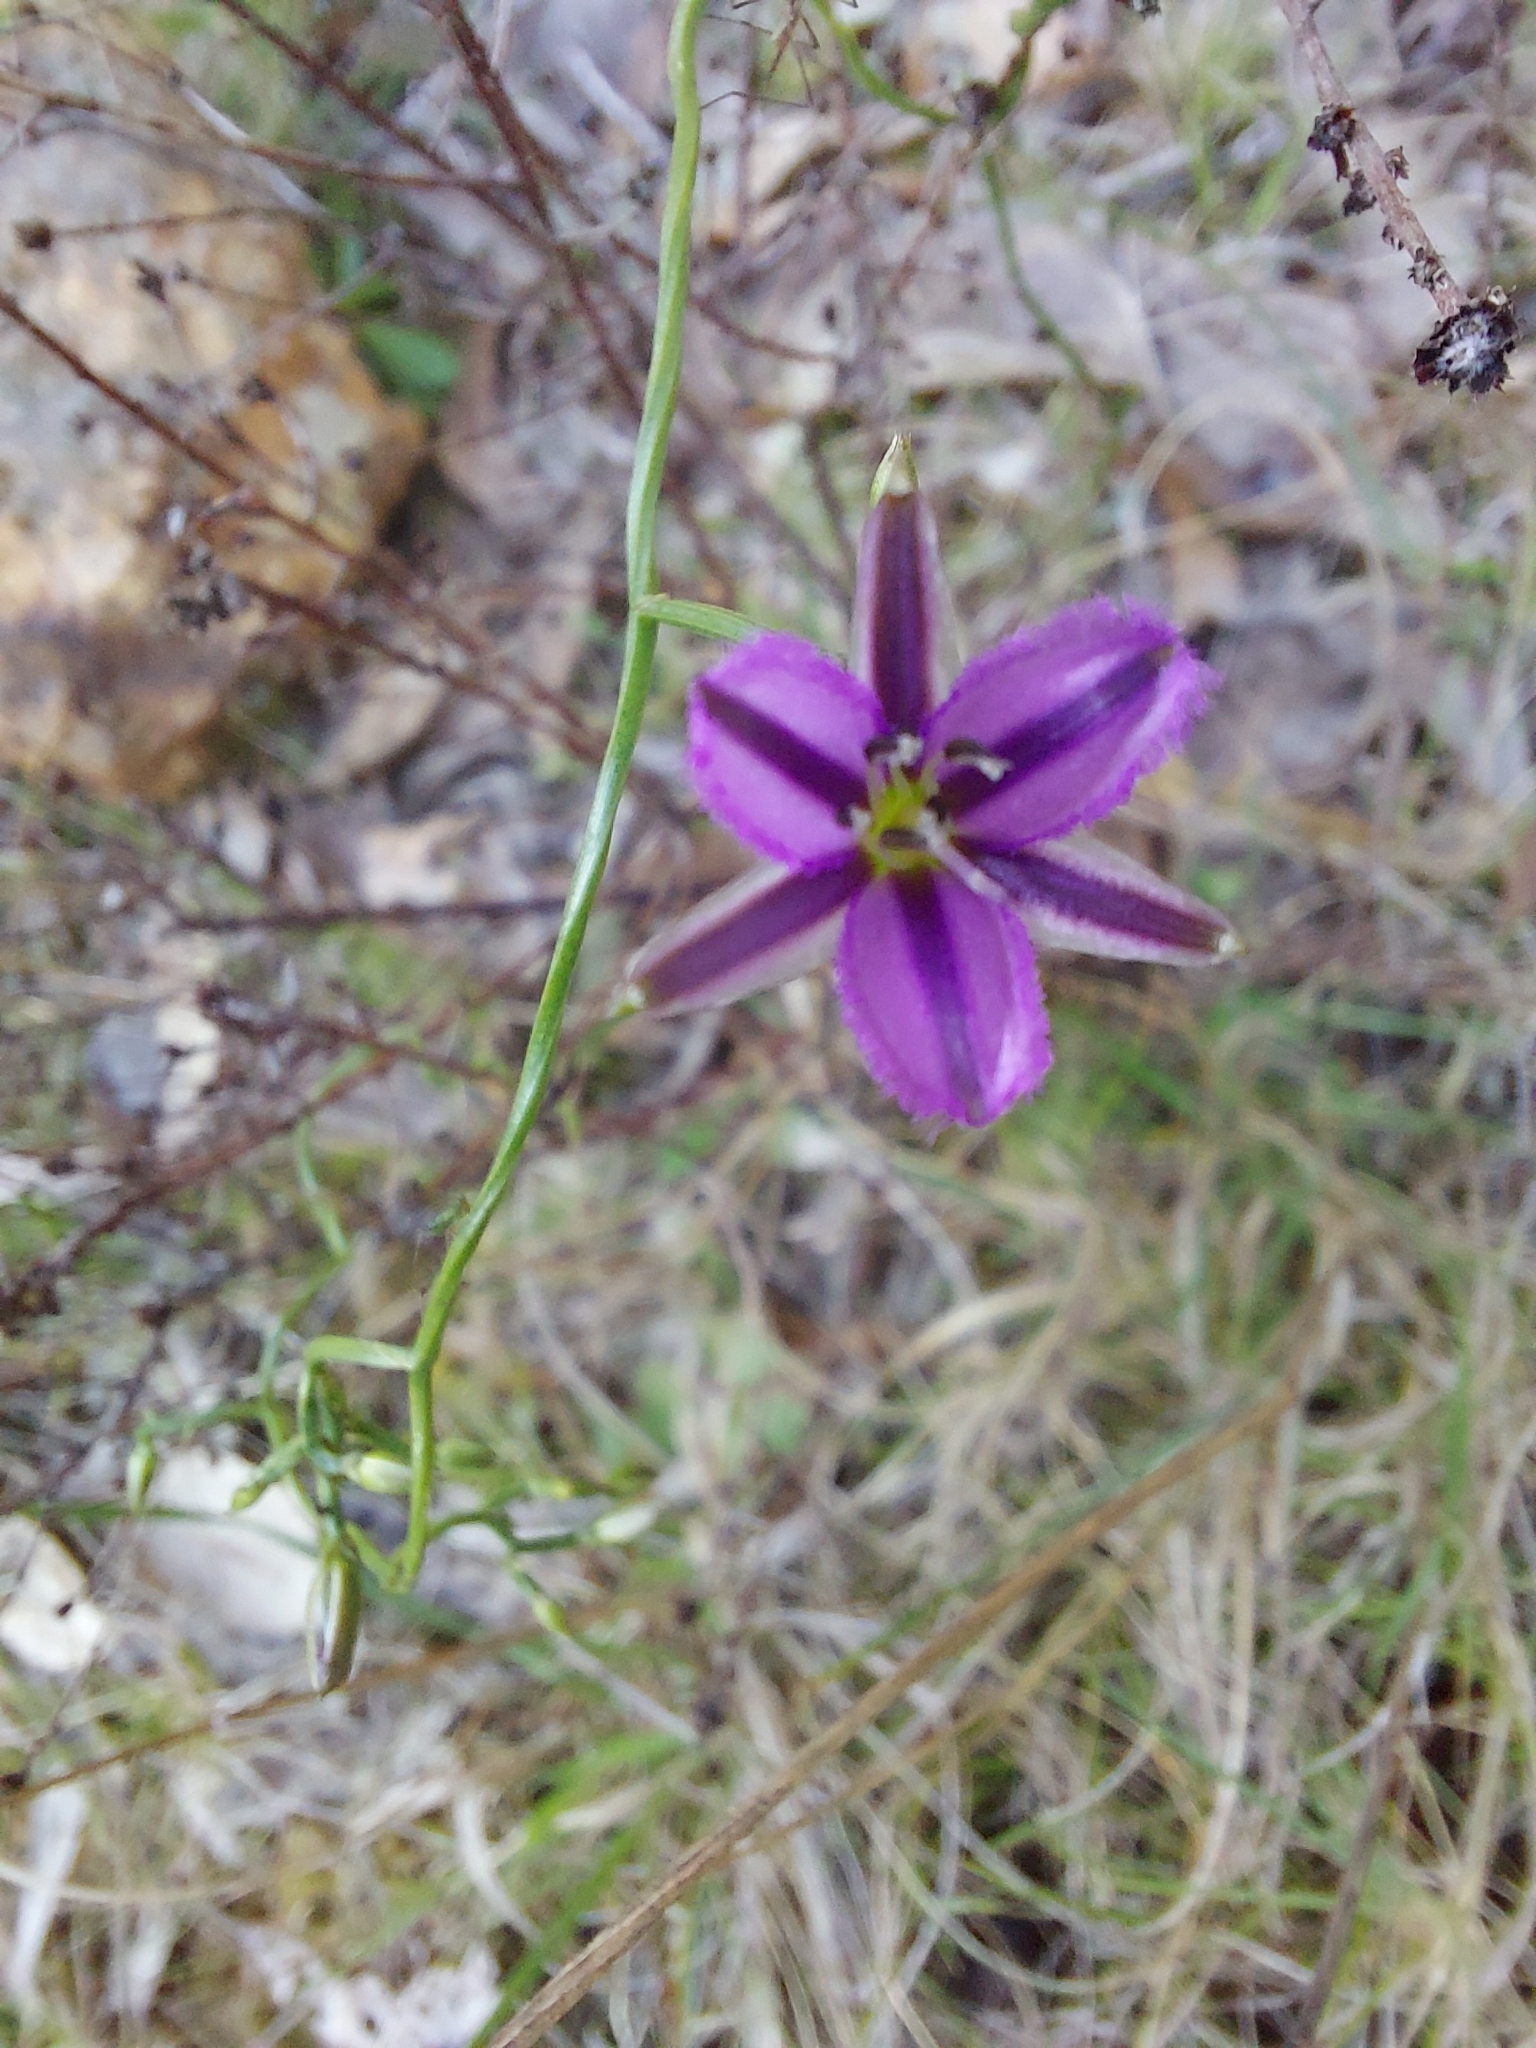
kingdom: Plantae
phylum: Tracheophyta
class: Liliopsida
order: Asparagales
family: Asparagaceae
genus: Thysanotus
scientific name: Thysanotus patersonii
